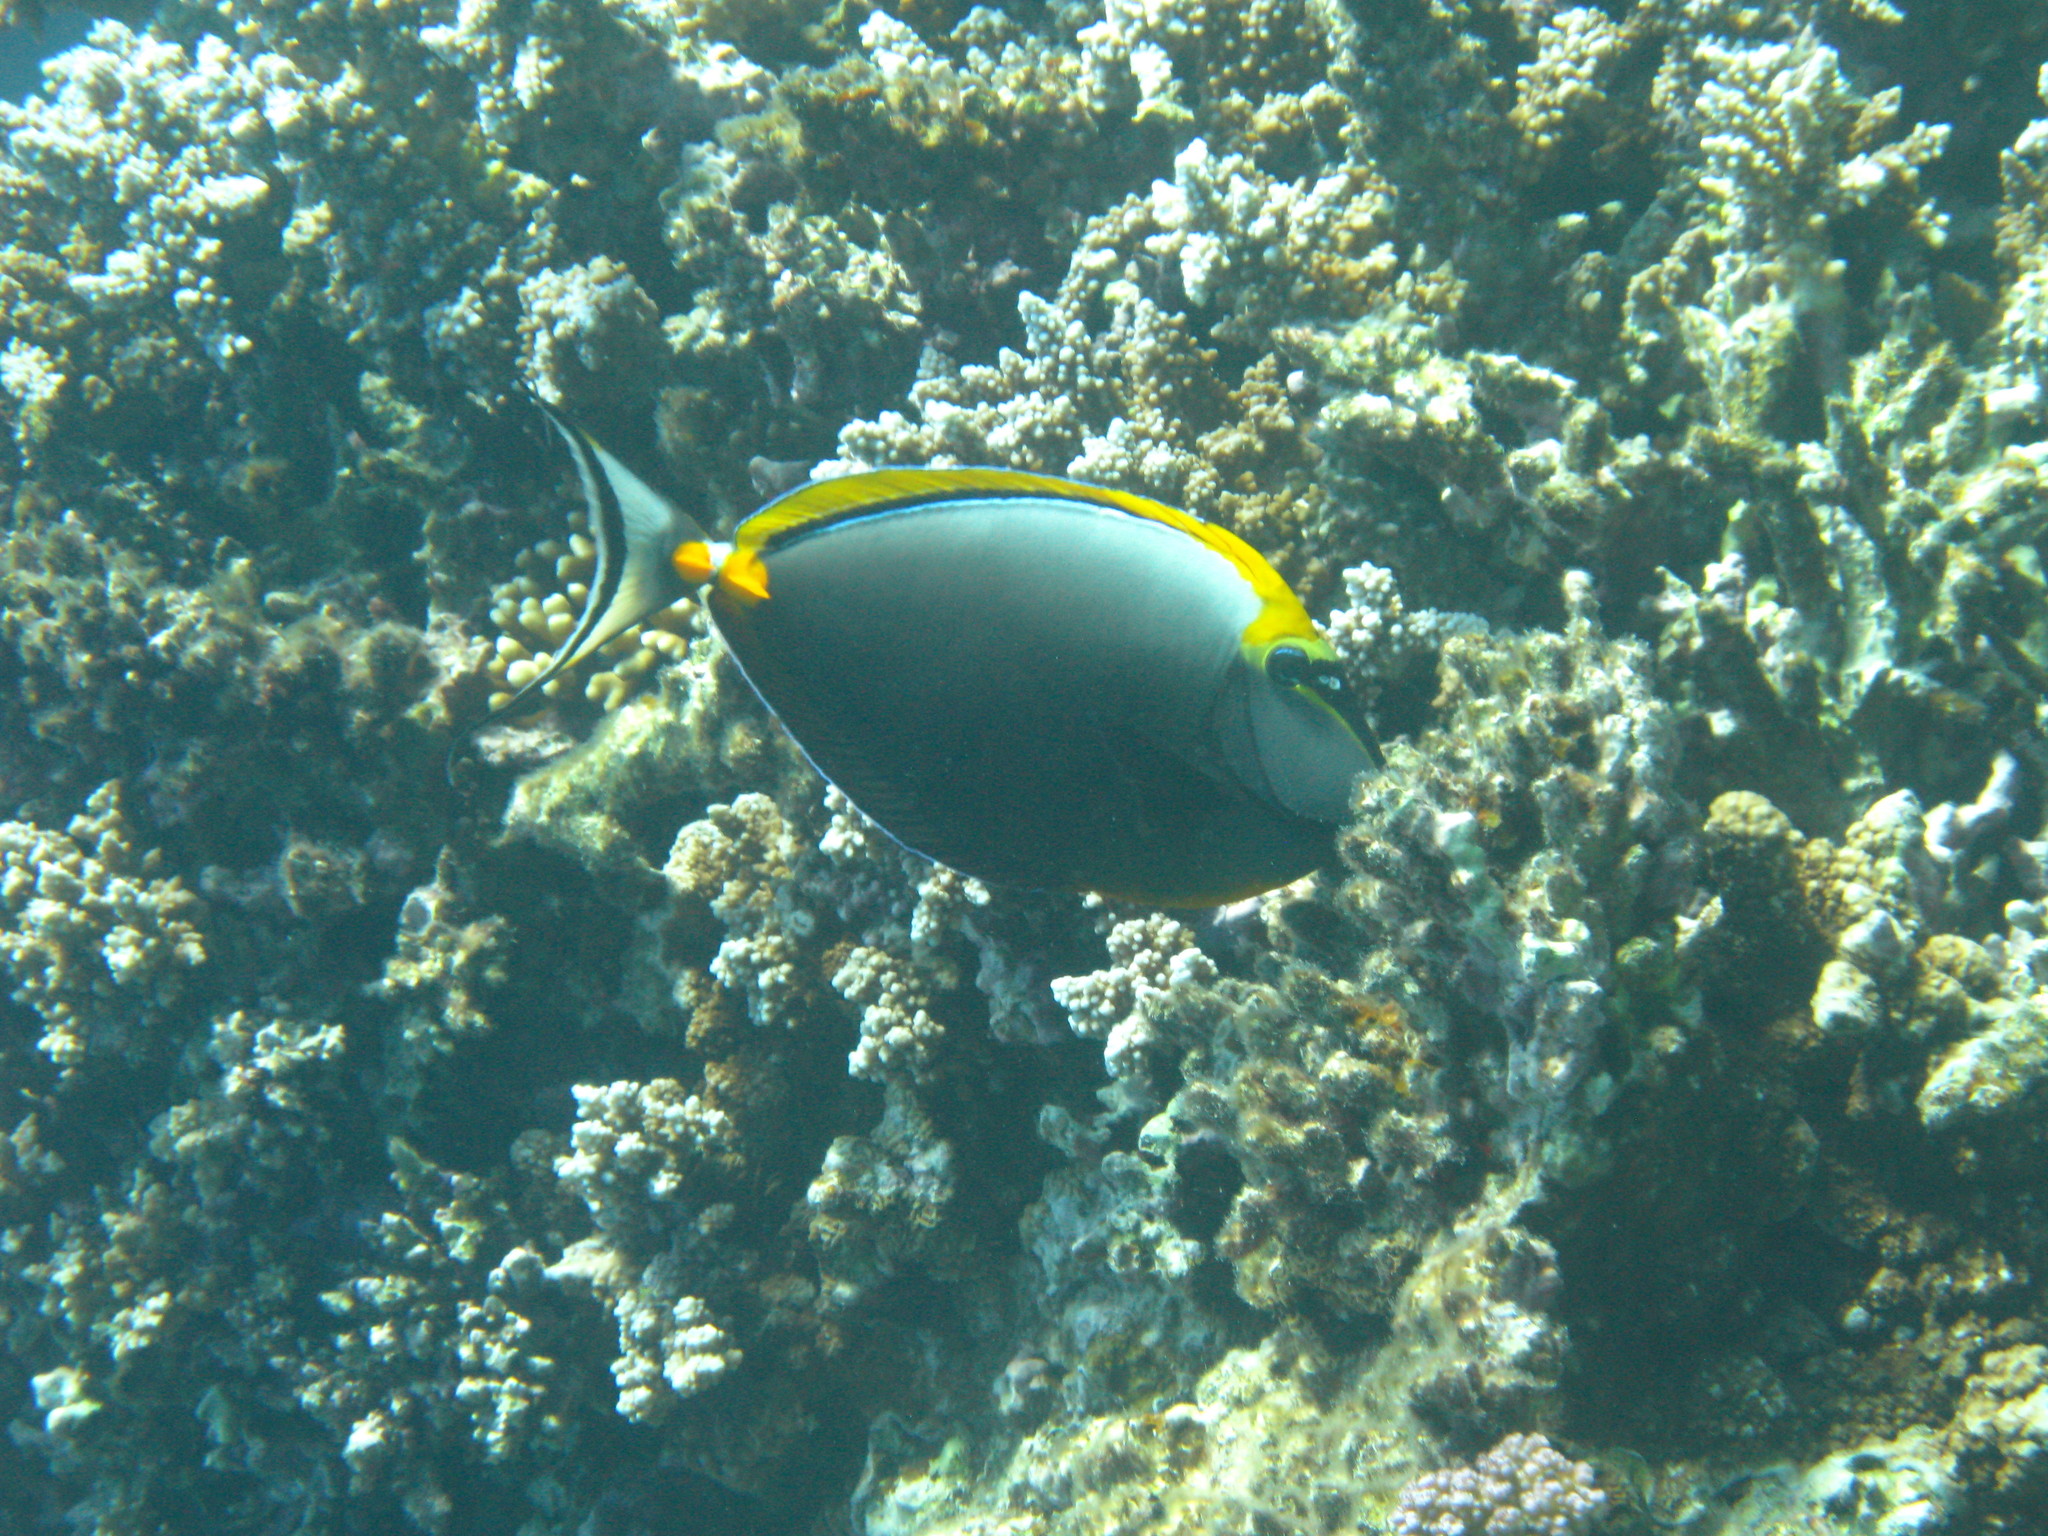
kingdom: Animalia
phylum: Chordata
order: Perciformes
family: Acanthuridae
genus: Naso
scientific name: Naso elegans
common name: Orangespine unicornfish
